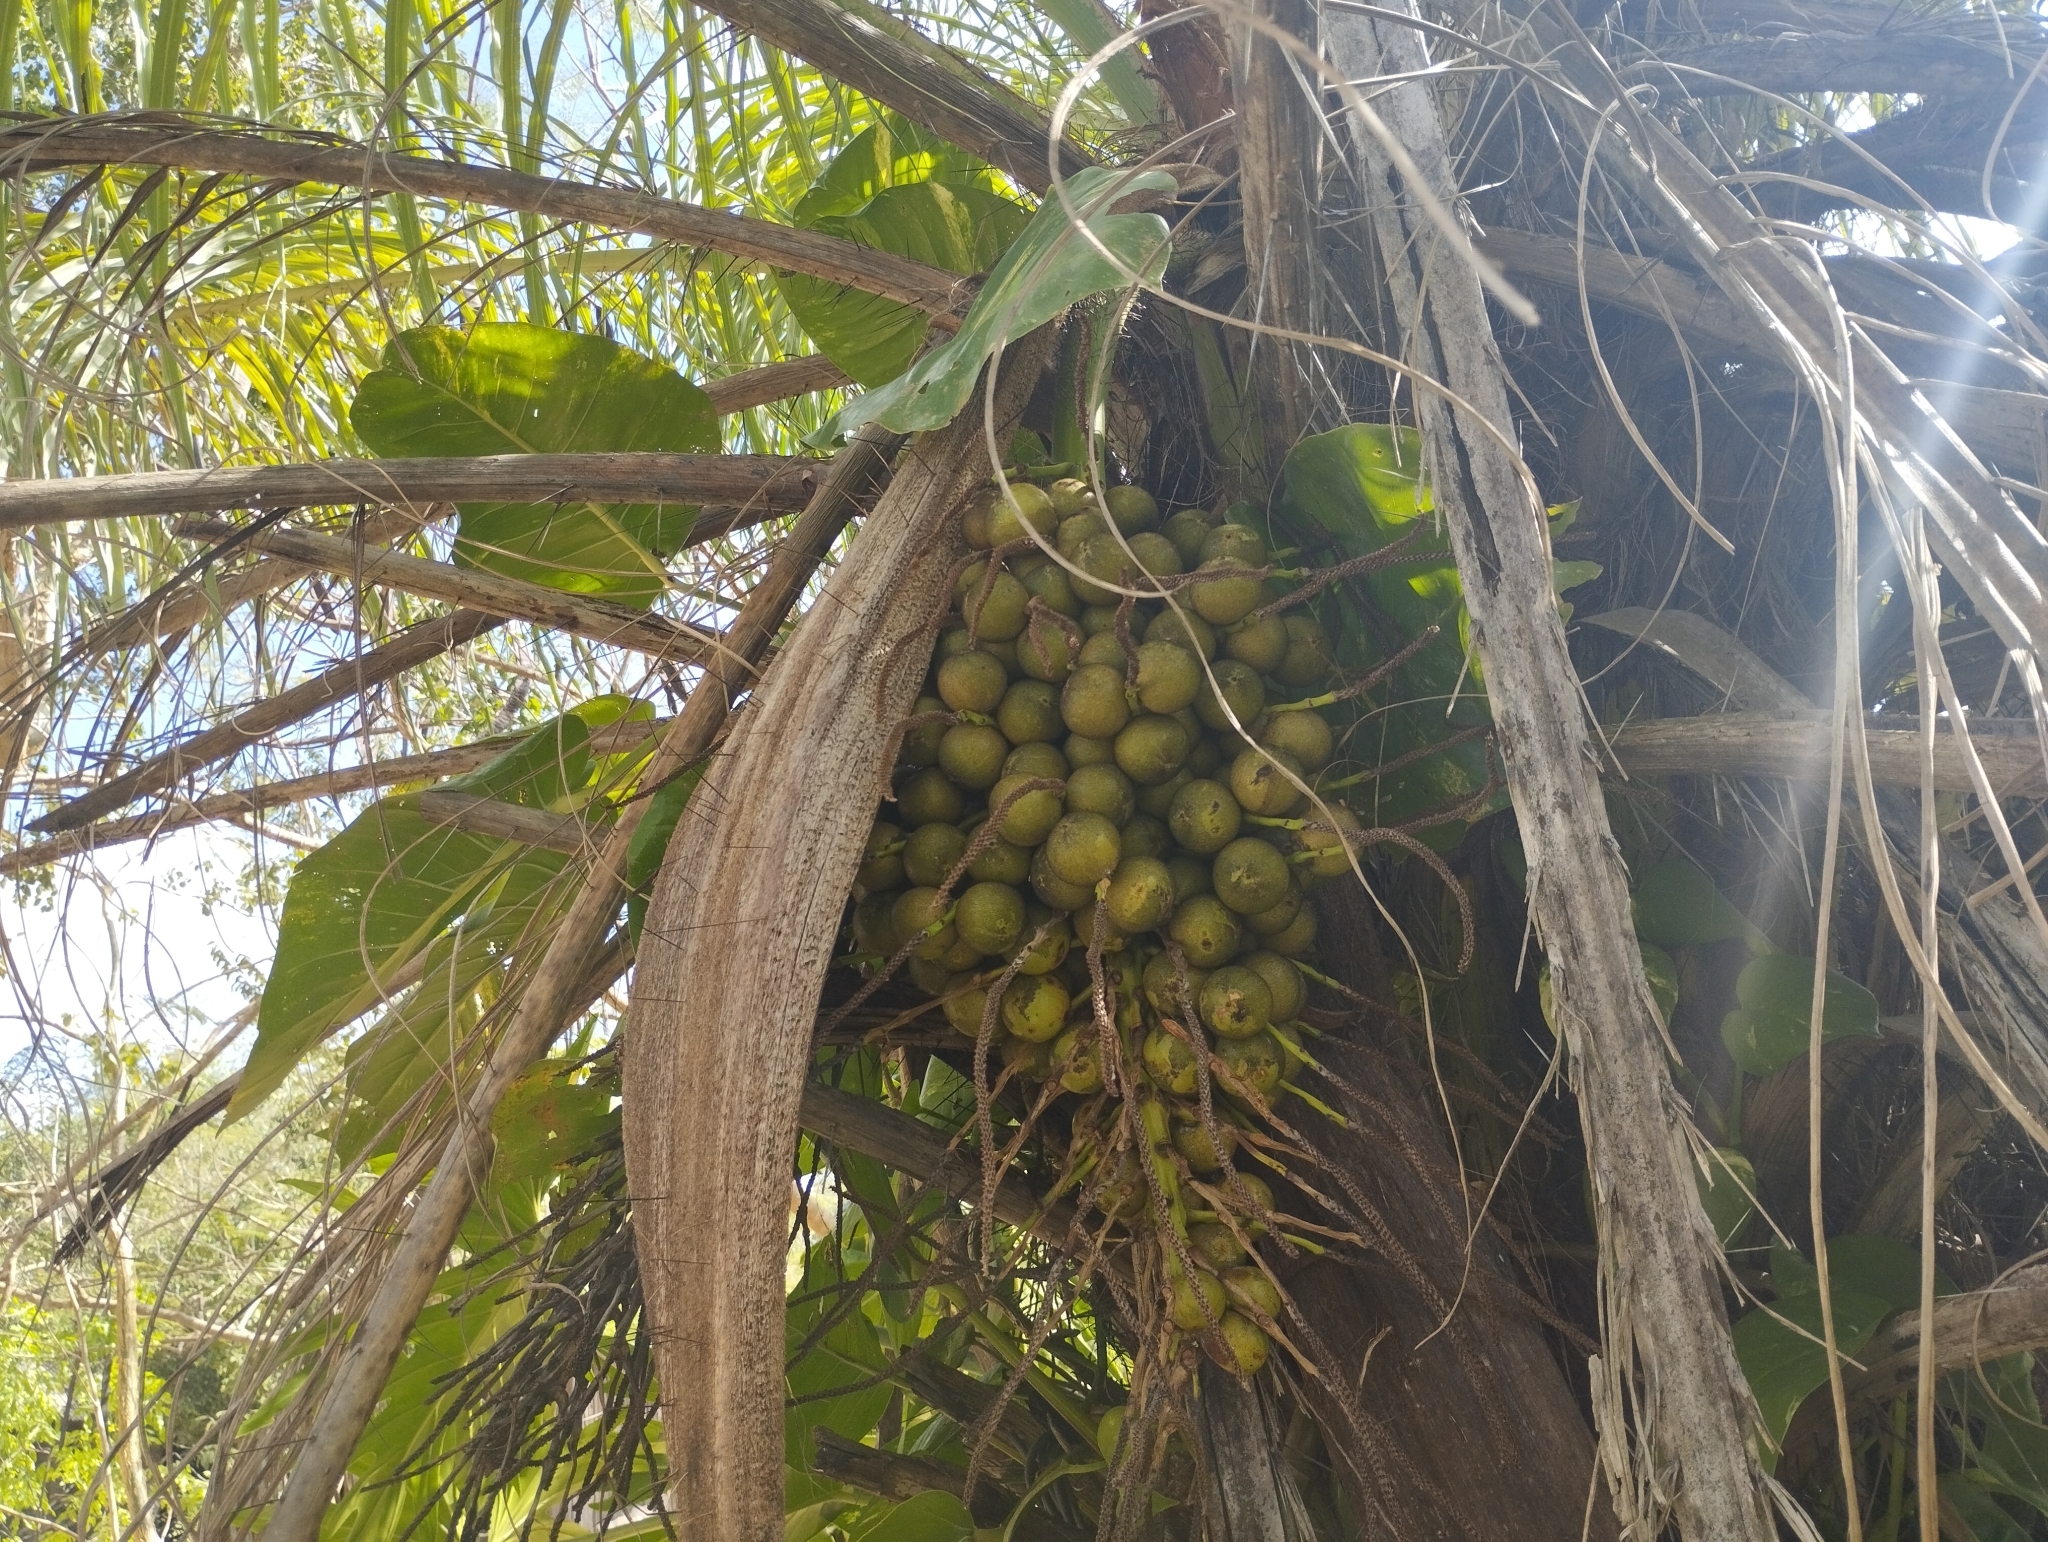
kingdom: Plantae
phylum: Tracheophyta
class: Liliopsida
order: Arecales
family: Arecaceae
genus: Acrocomia
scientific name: Acrocomia aculeata
